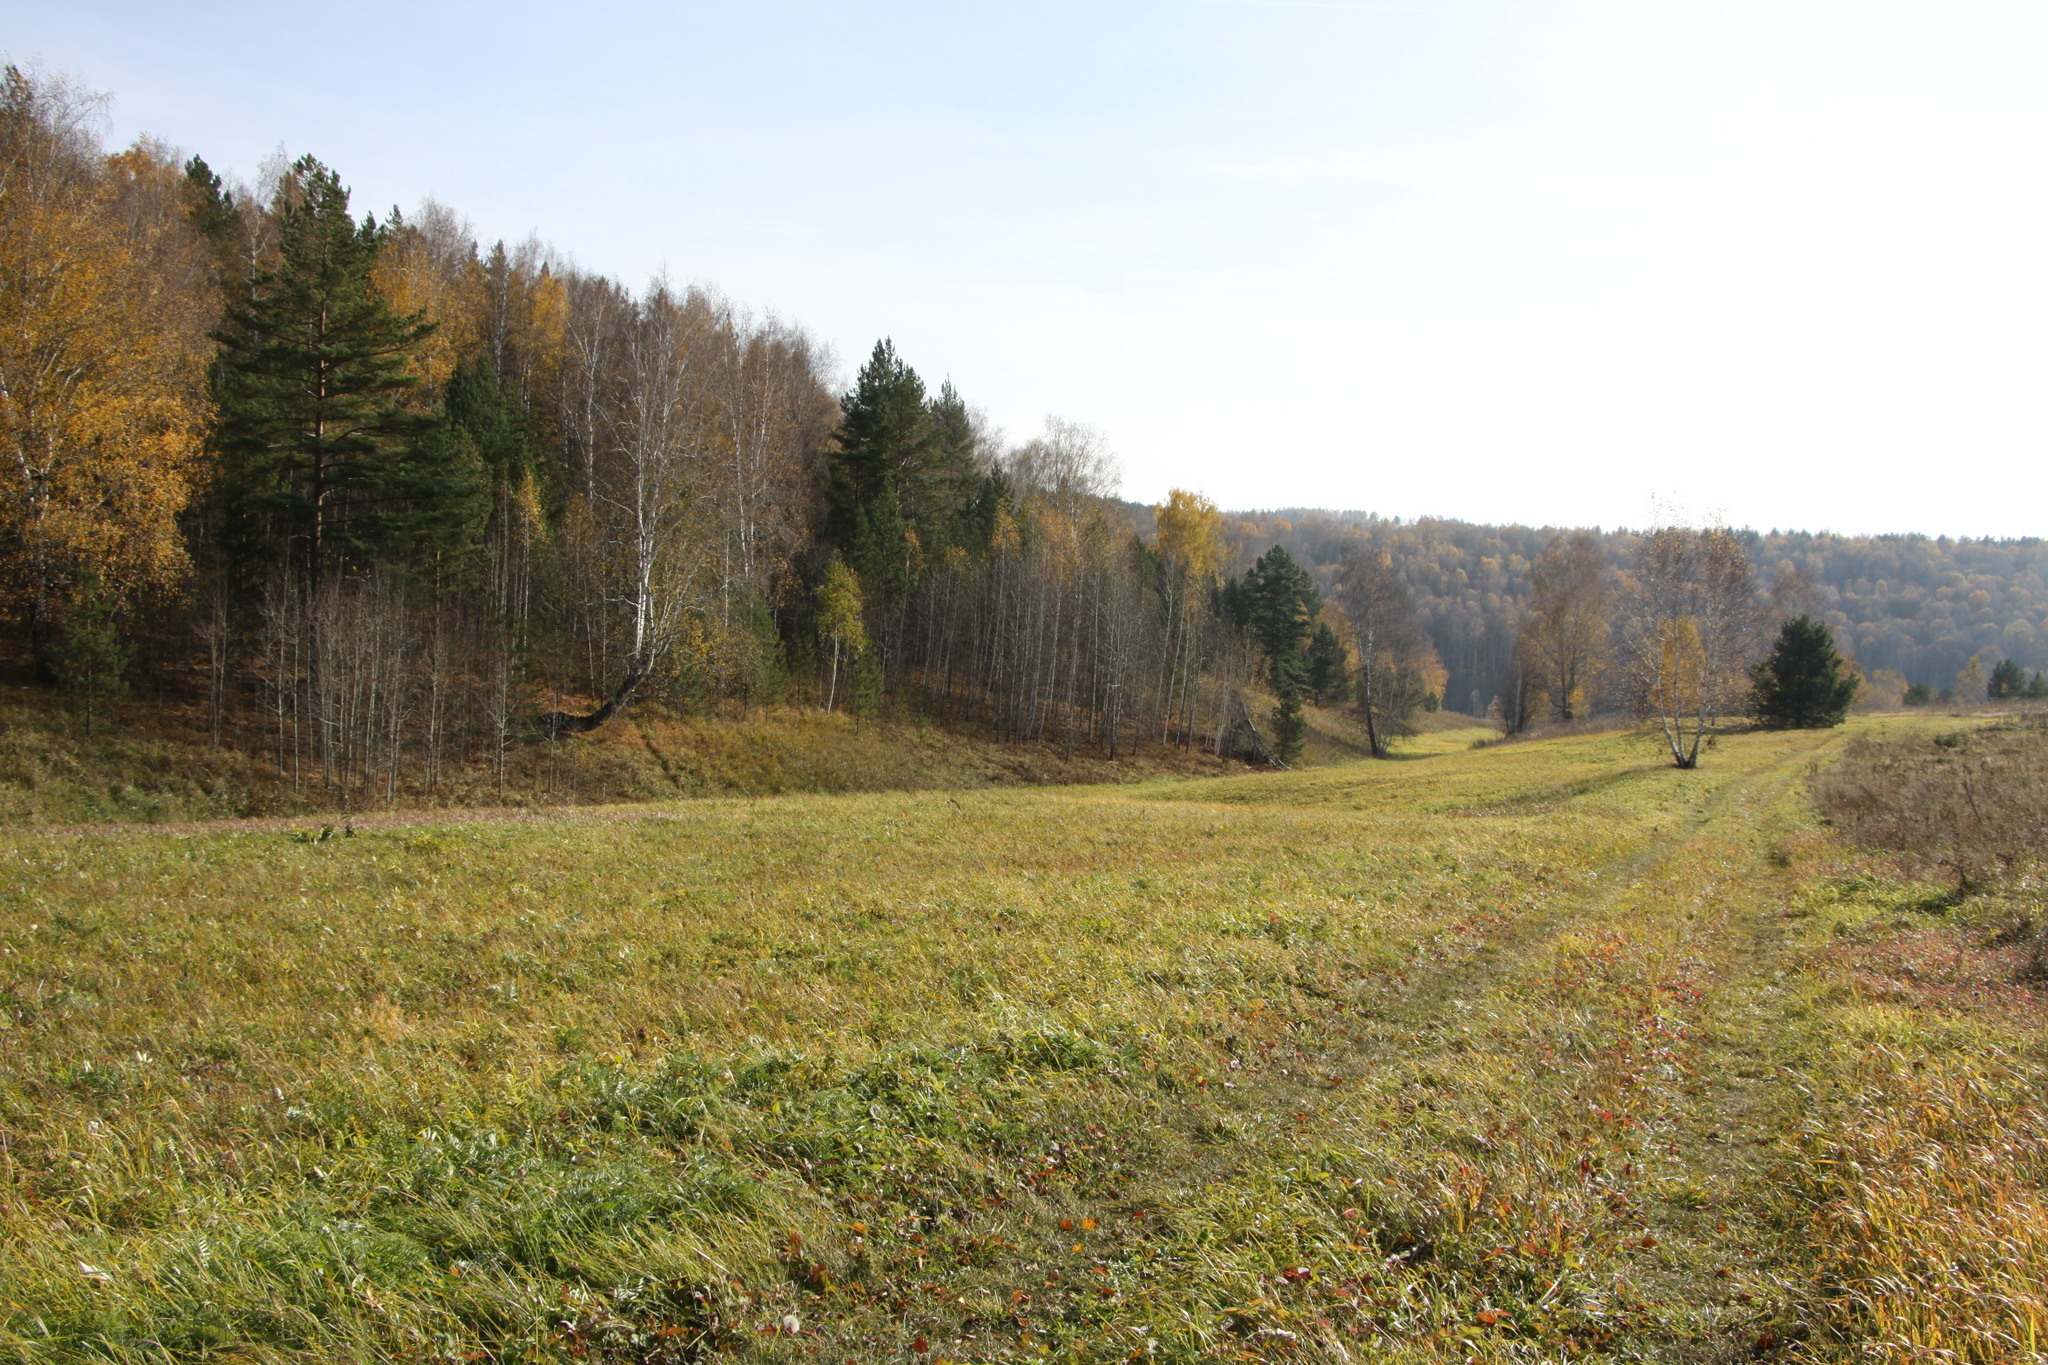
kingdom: Plantae
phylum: Tracheophyta
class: Pinopsida
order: Pinales
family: Pinaceae
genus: Pinus
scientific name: Pinus sylvestris
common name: Scots pine
